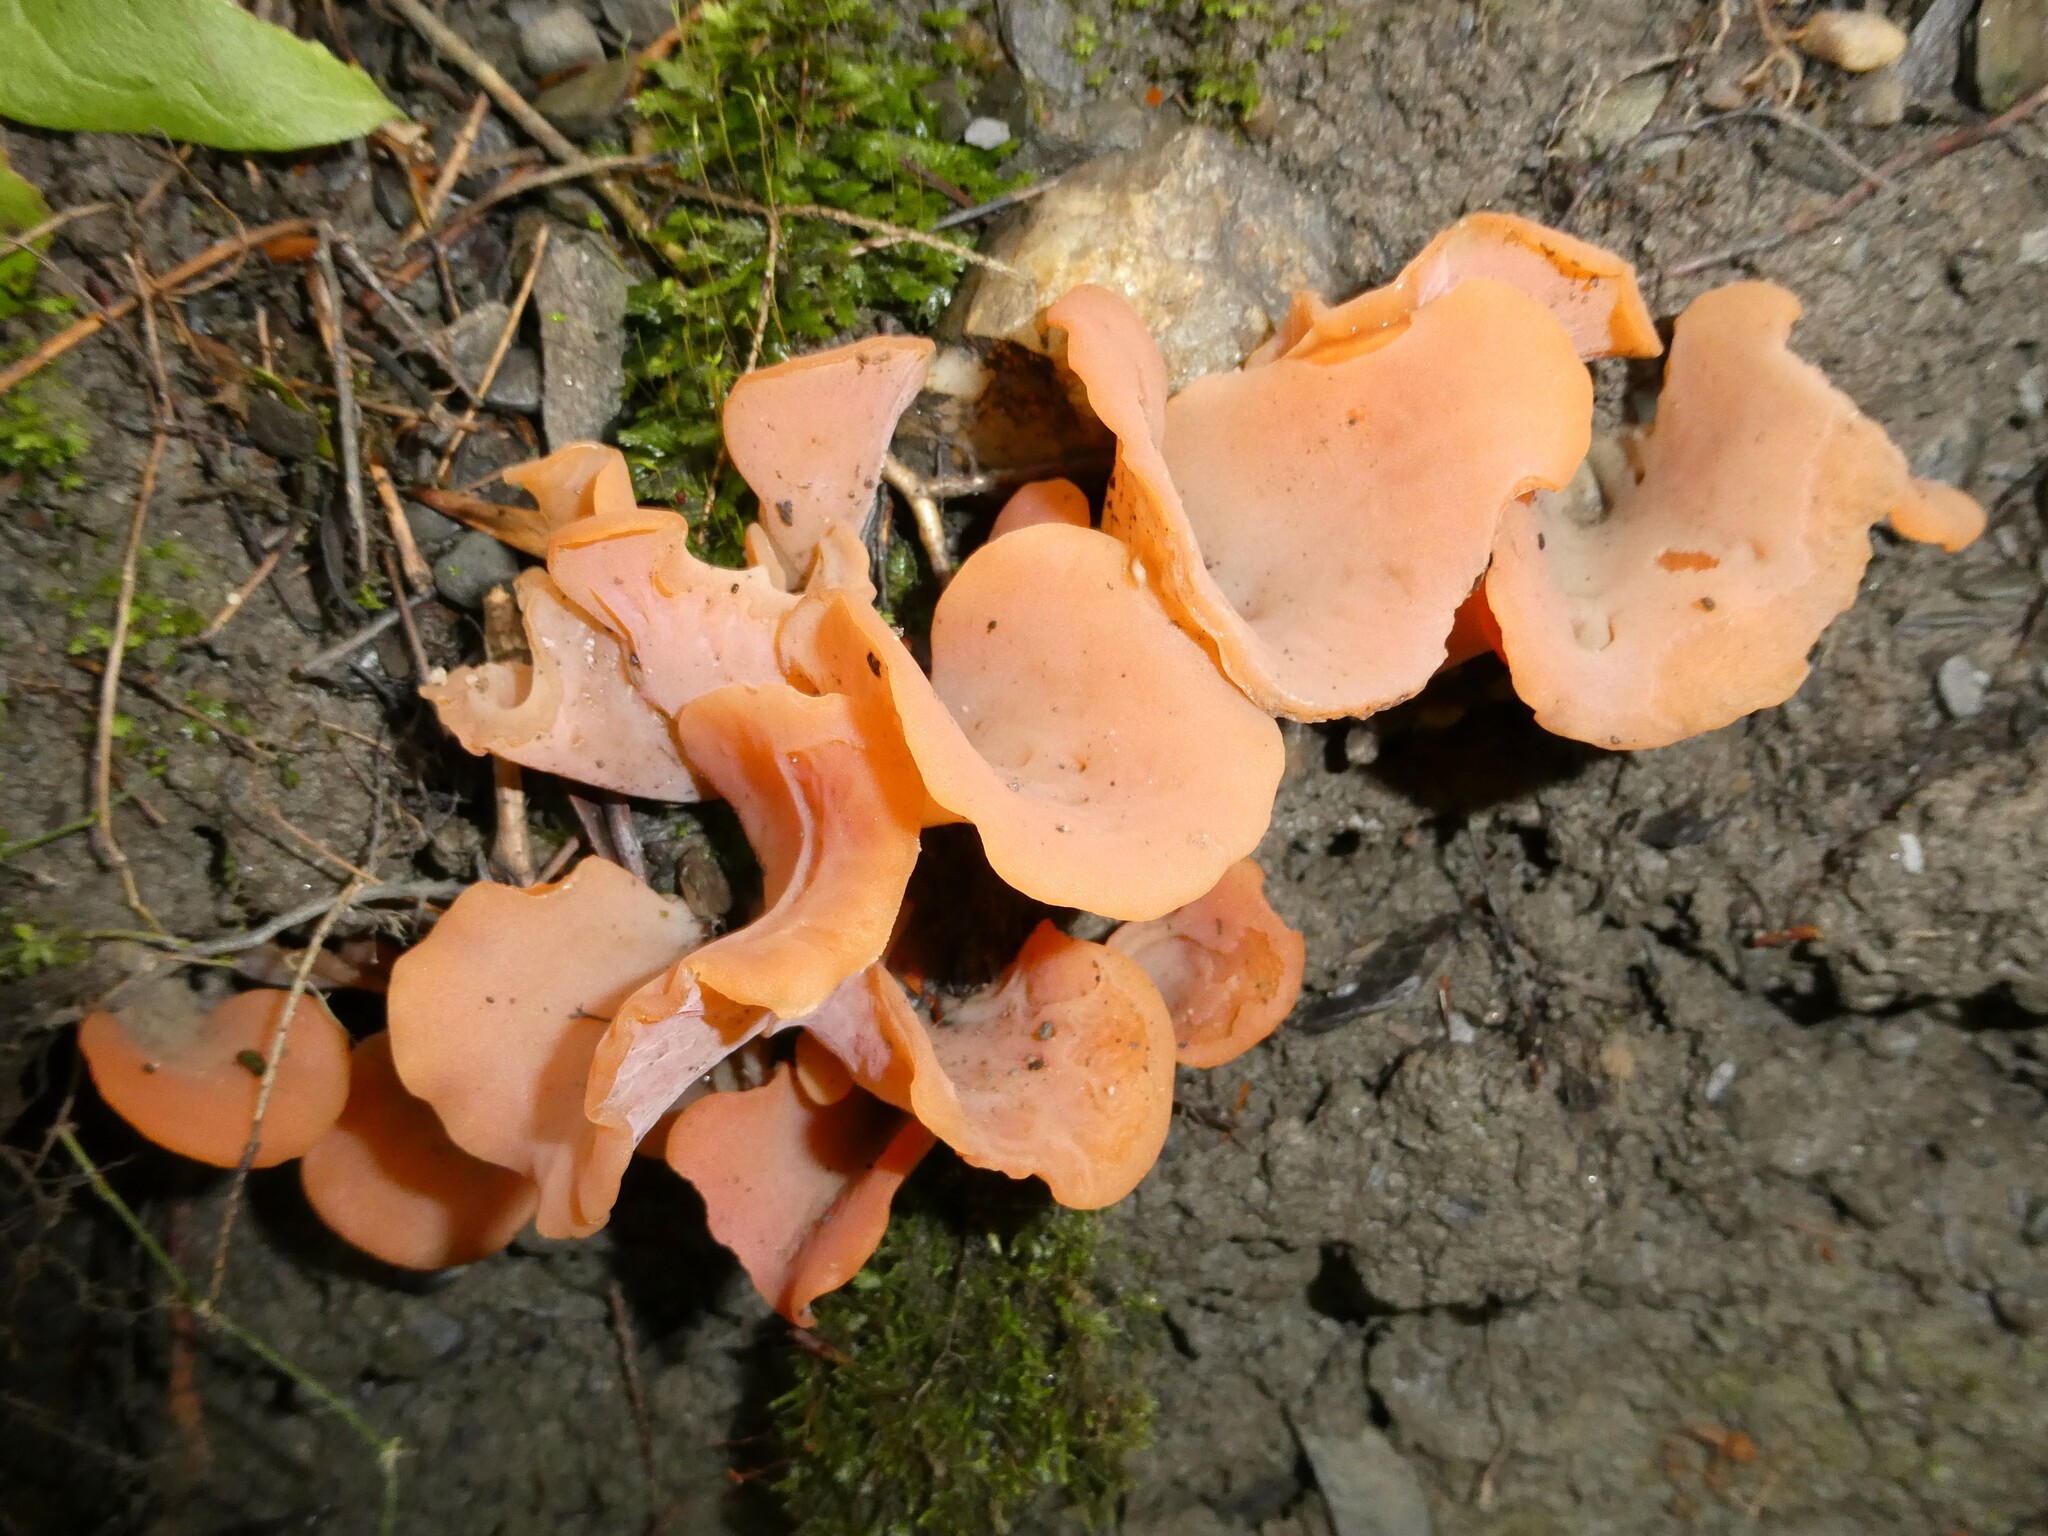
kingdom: Fungi
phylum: Basidiomycota
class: Agaricomycetes
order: Auriculariales
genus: Guepinia
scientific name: Guepinia helvelloides
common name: Salmon salad
